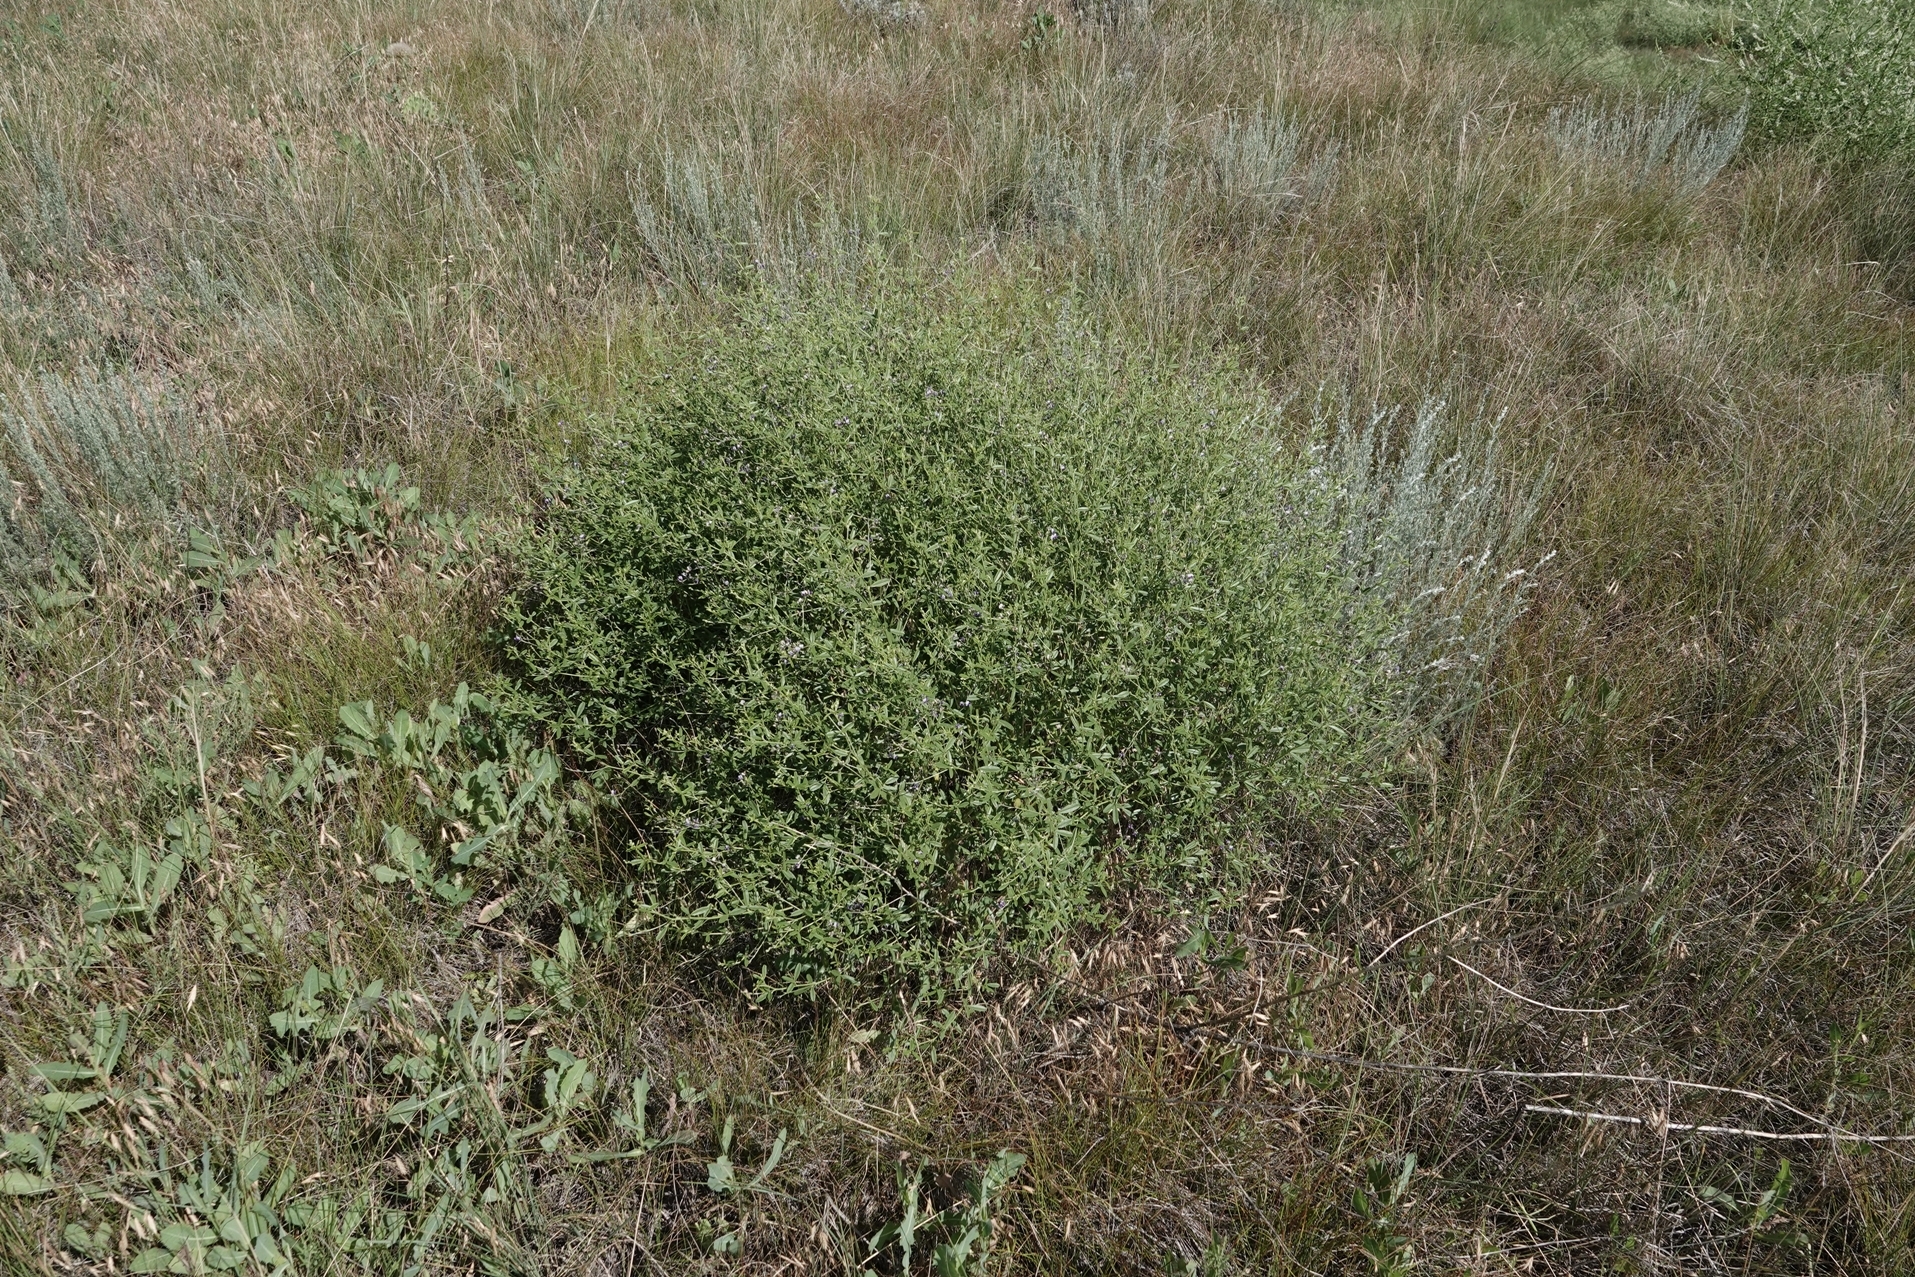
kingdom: Plantae
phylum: Tracheophyta
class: Magnoliopsida
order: Fabales
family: Fabaceae
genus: Pediomelum
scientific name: Pediomelum tenuiflorum
